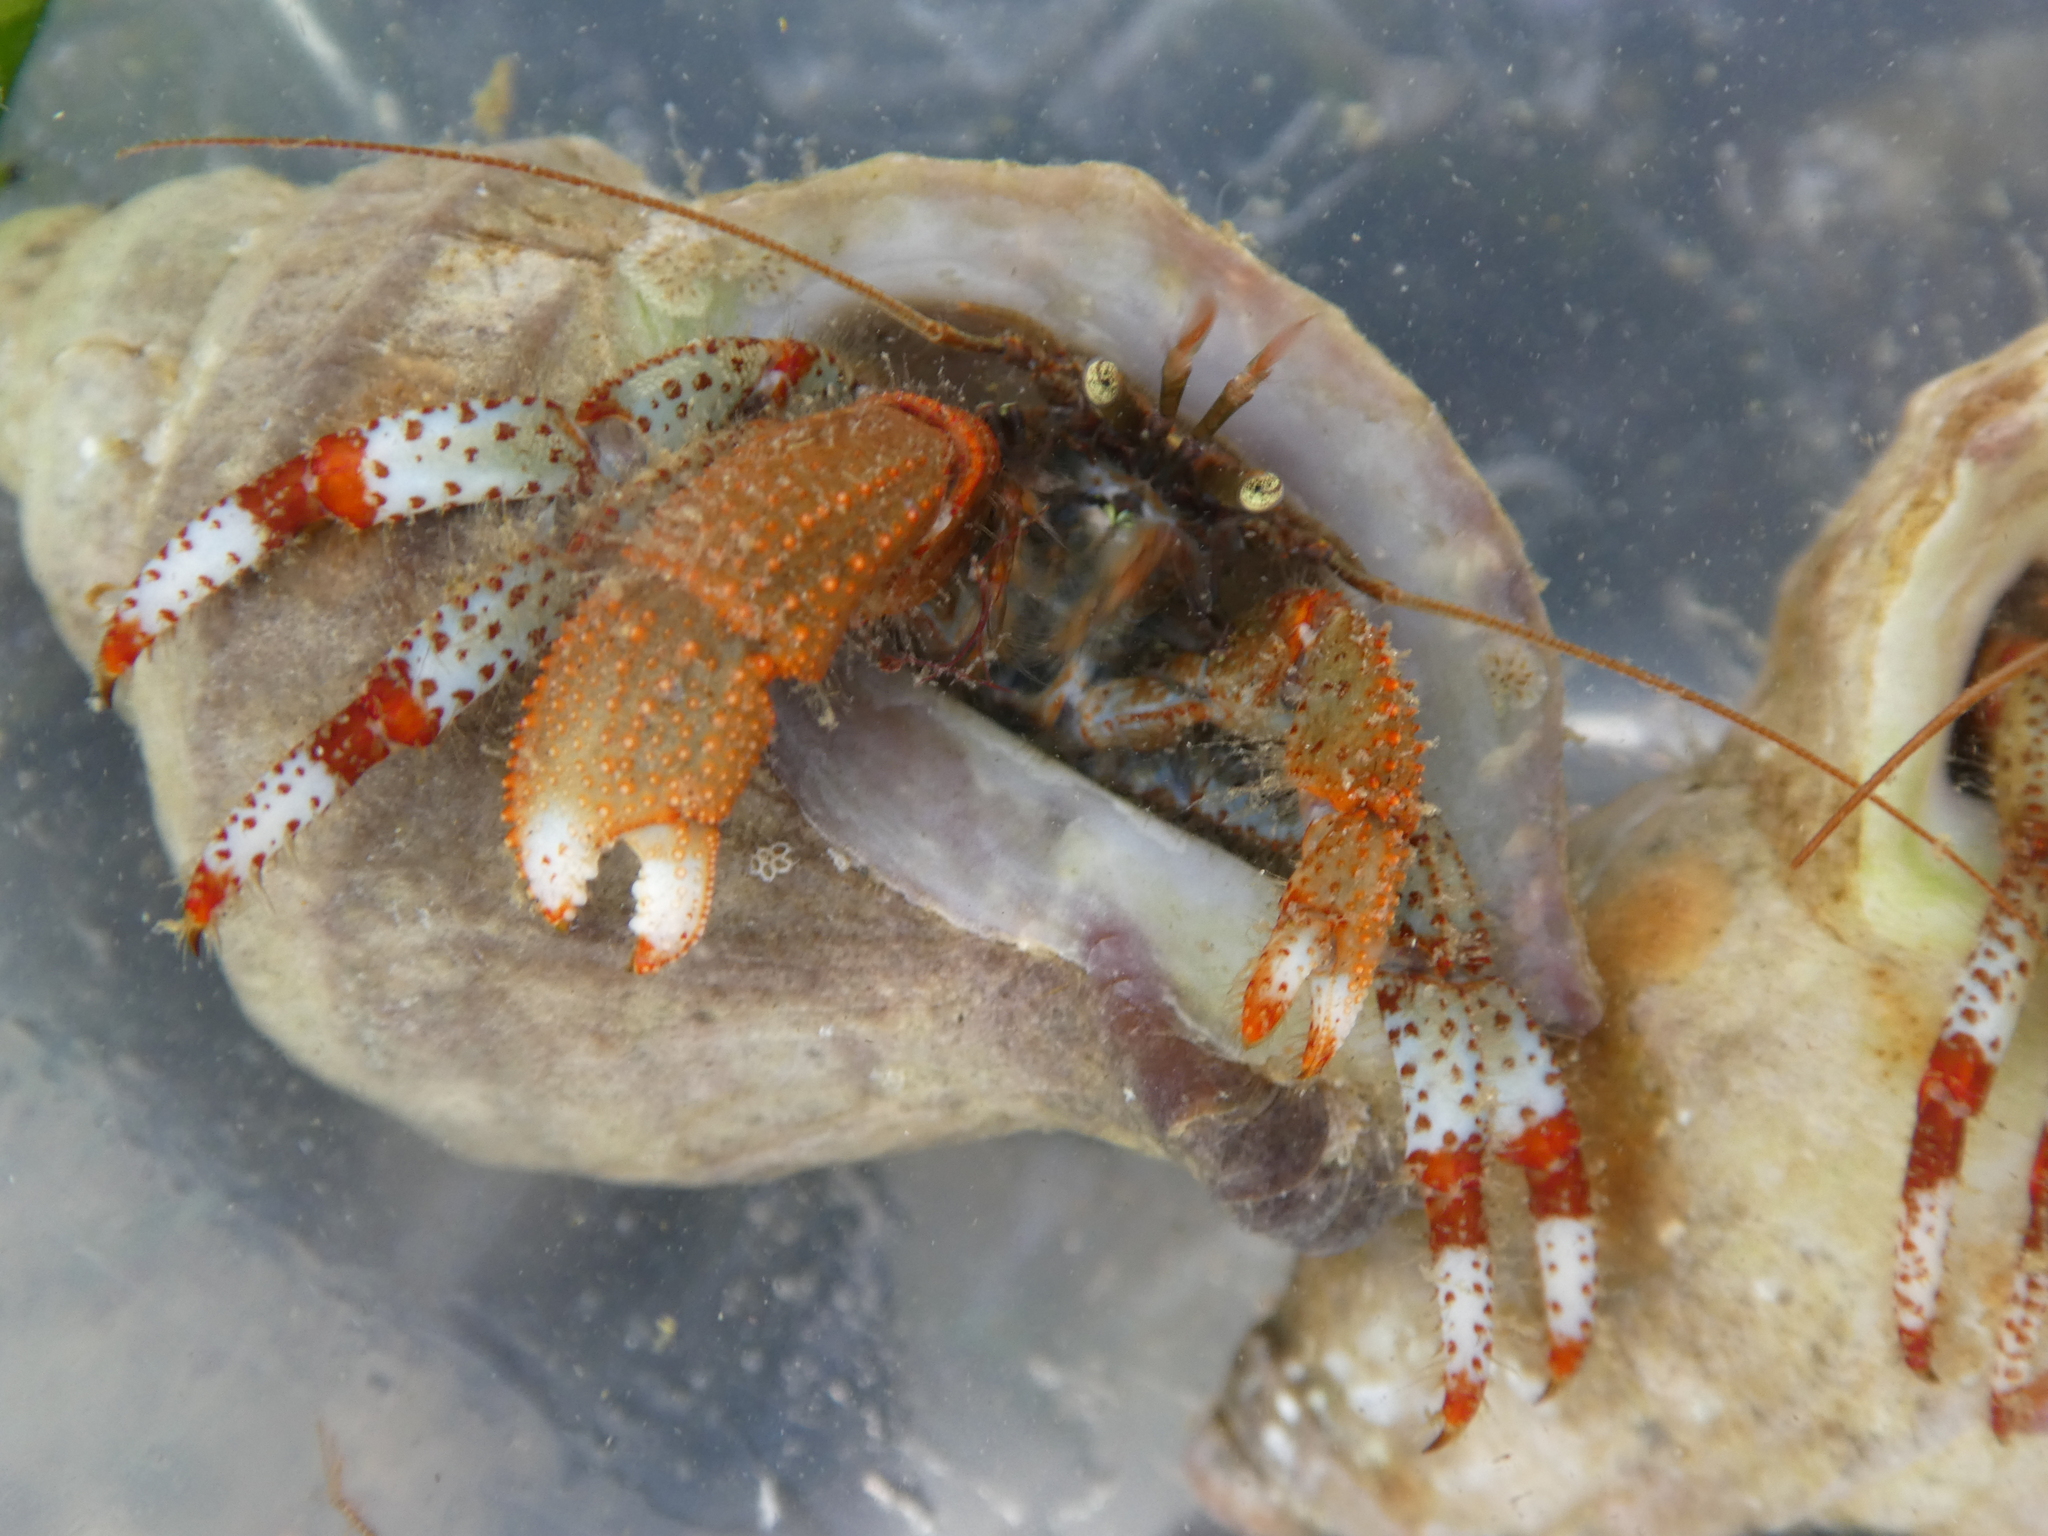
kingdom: Animalia
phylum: Arthropoda
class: Malacostraca
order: Decapoda
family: Paguridae
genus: Pagurus
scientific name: Pagurus beringanus
